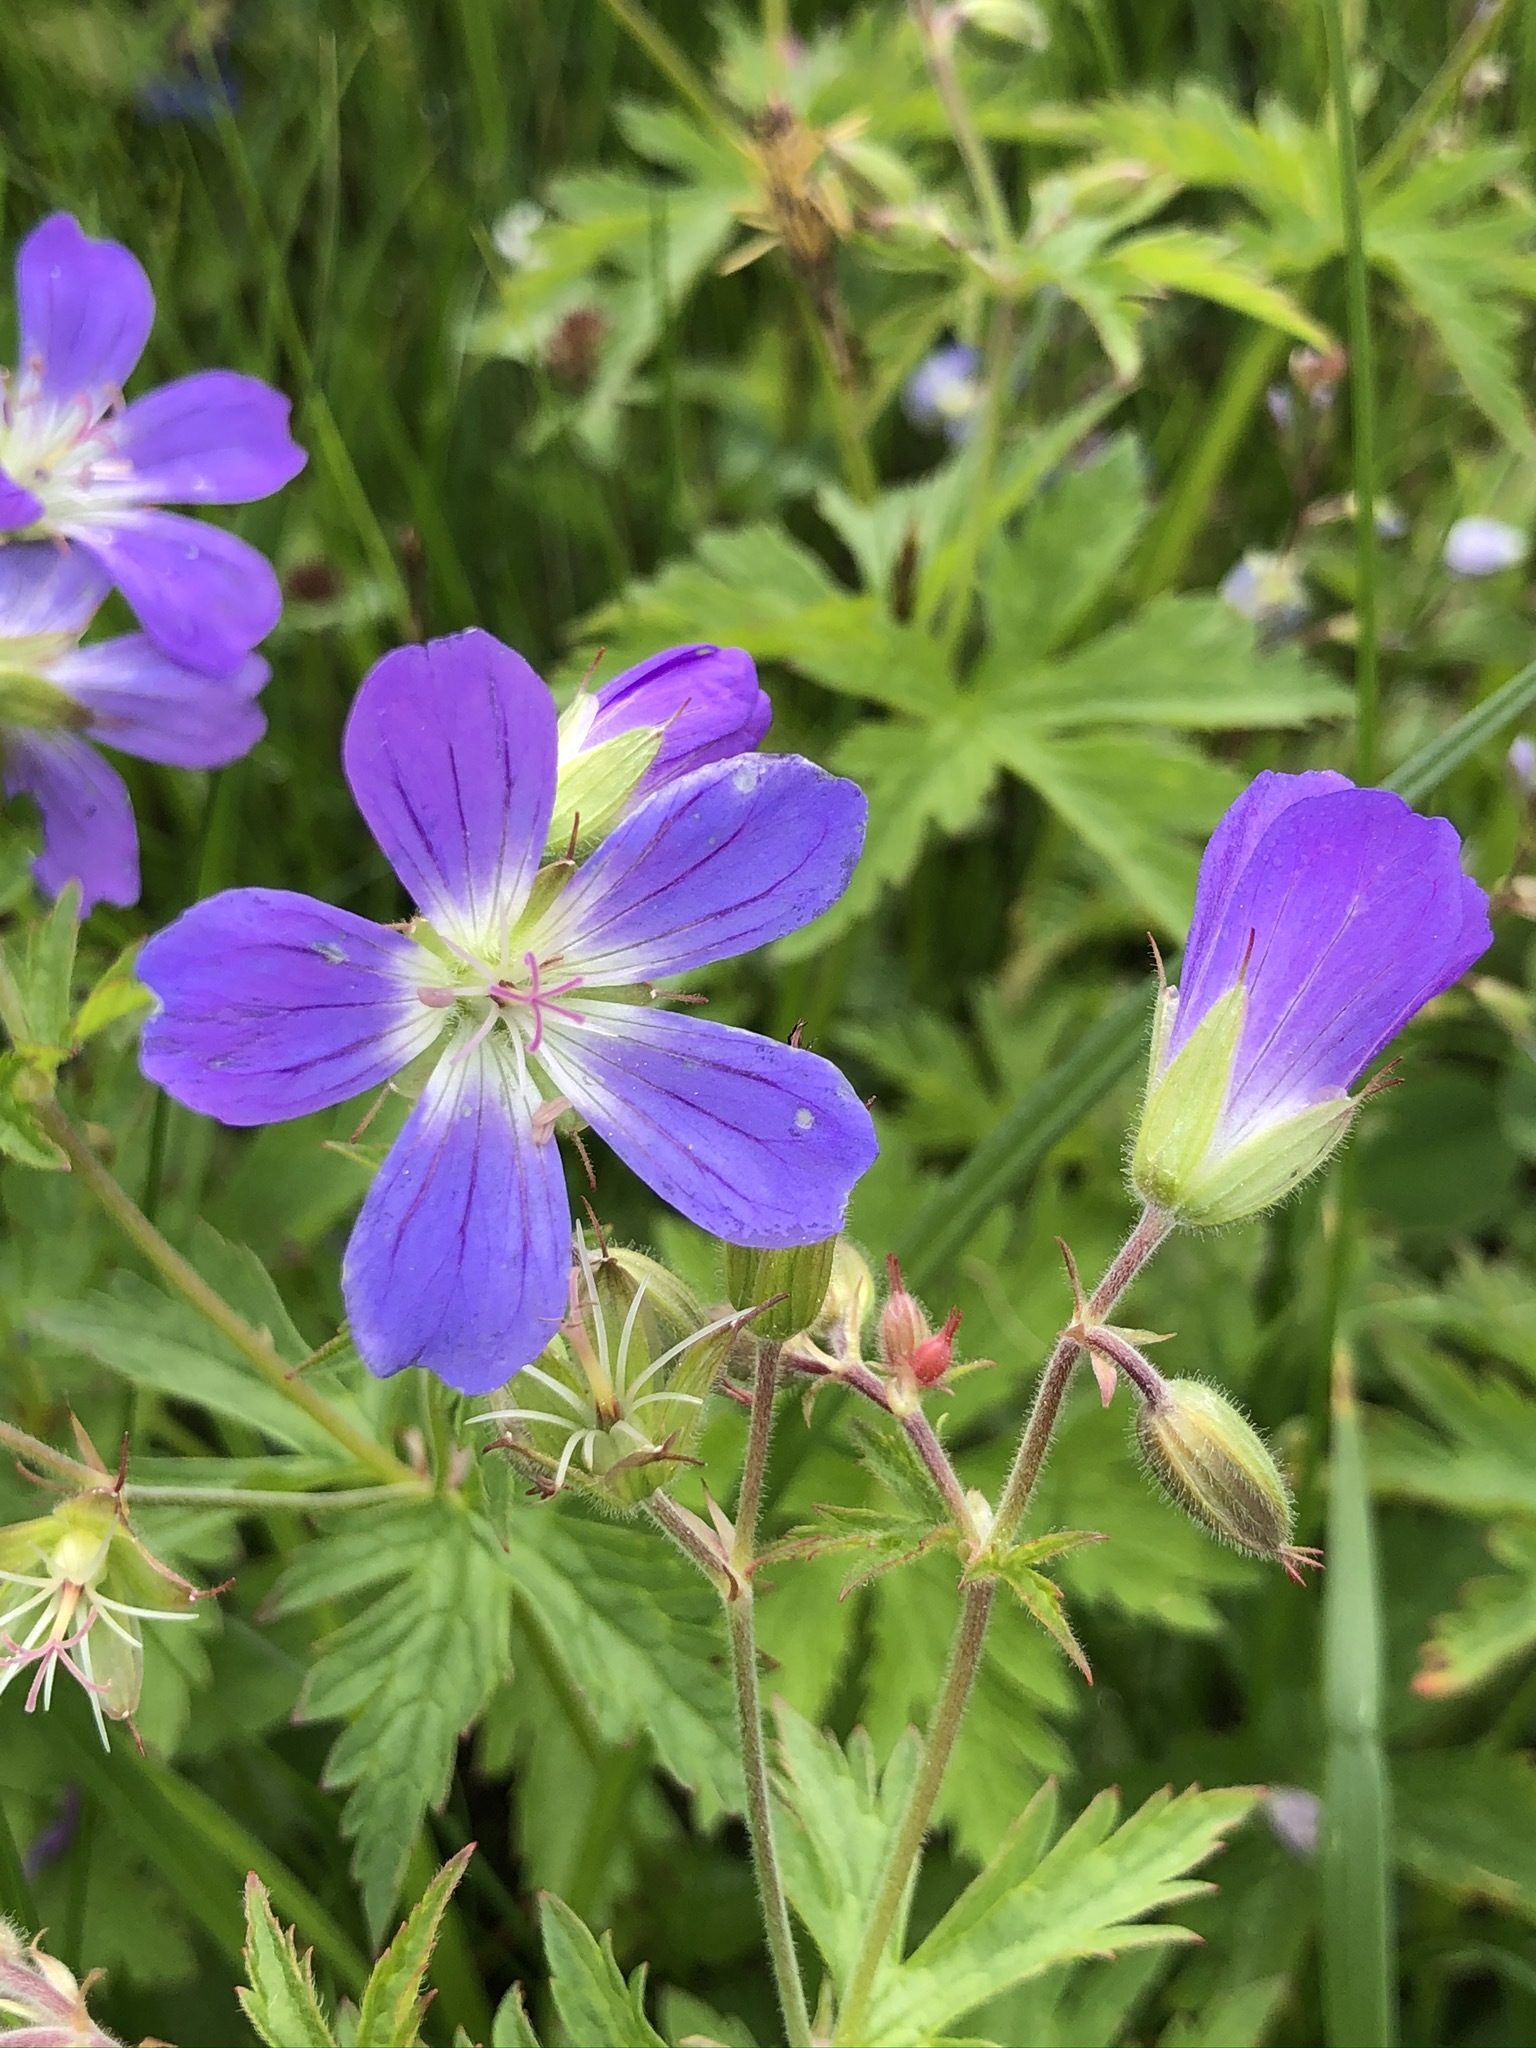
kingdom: Plantae
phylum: Tracheophyta
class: Magnoliopsida
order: Geraniales
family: Geraniaceae
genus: Geranium
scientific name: Geranium sylvaticum
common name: Wood crane's-bill
